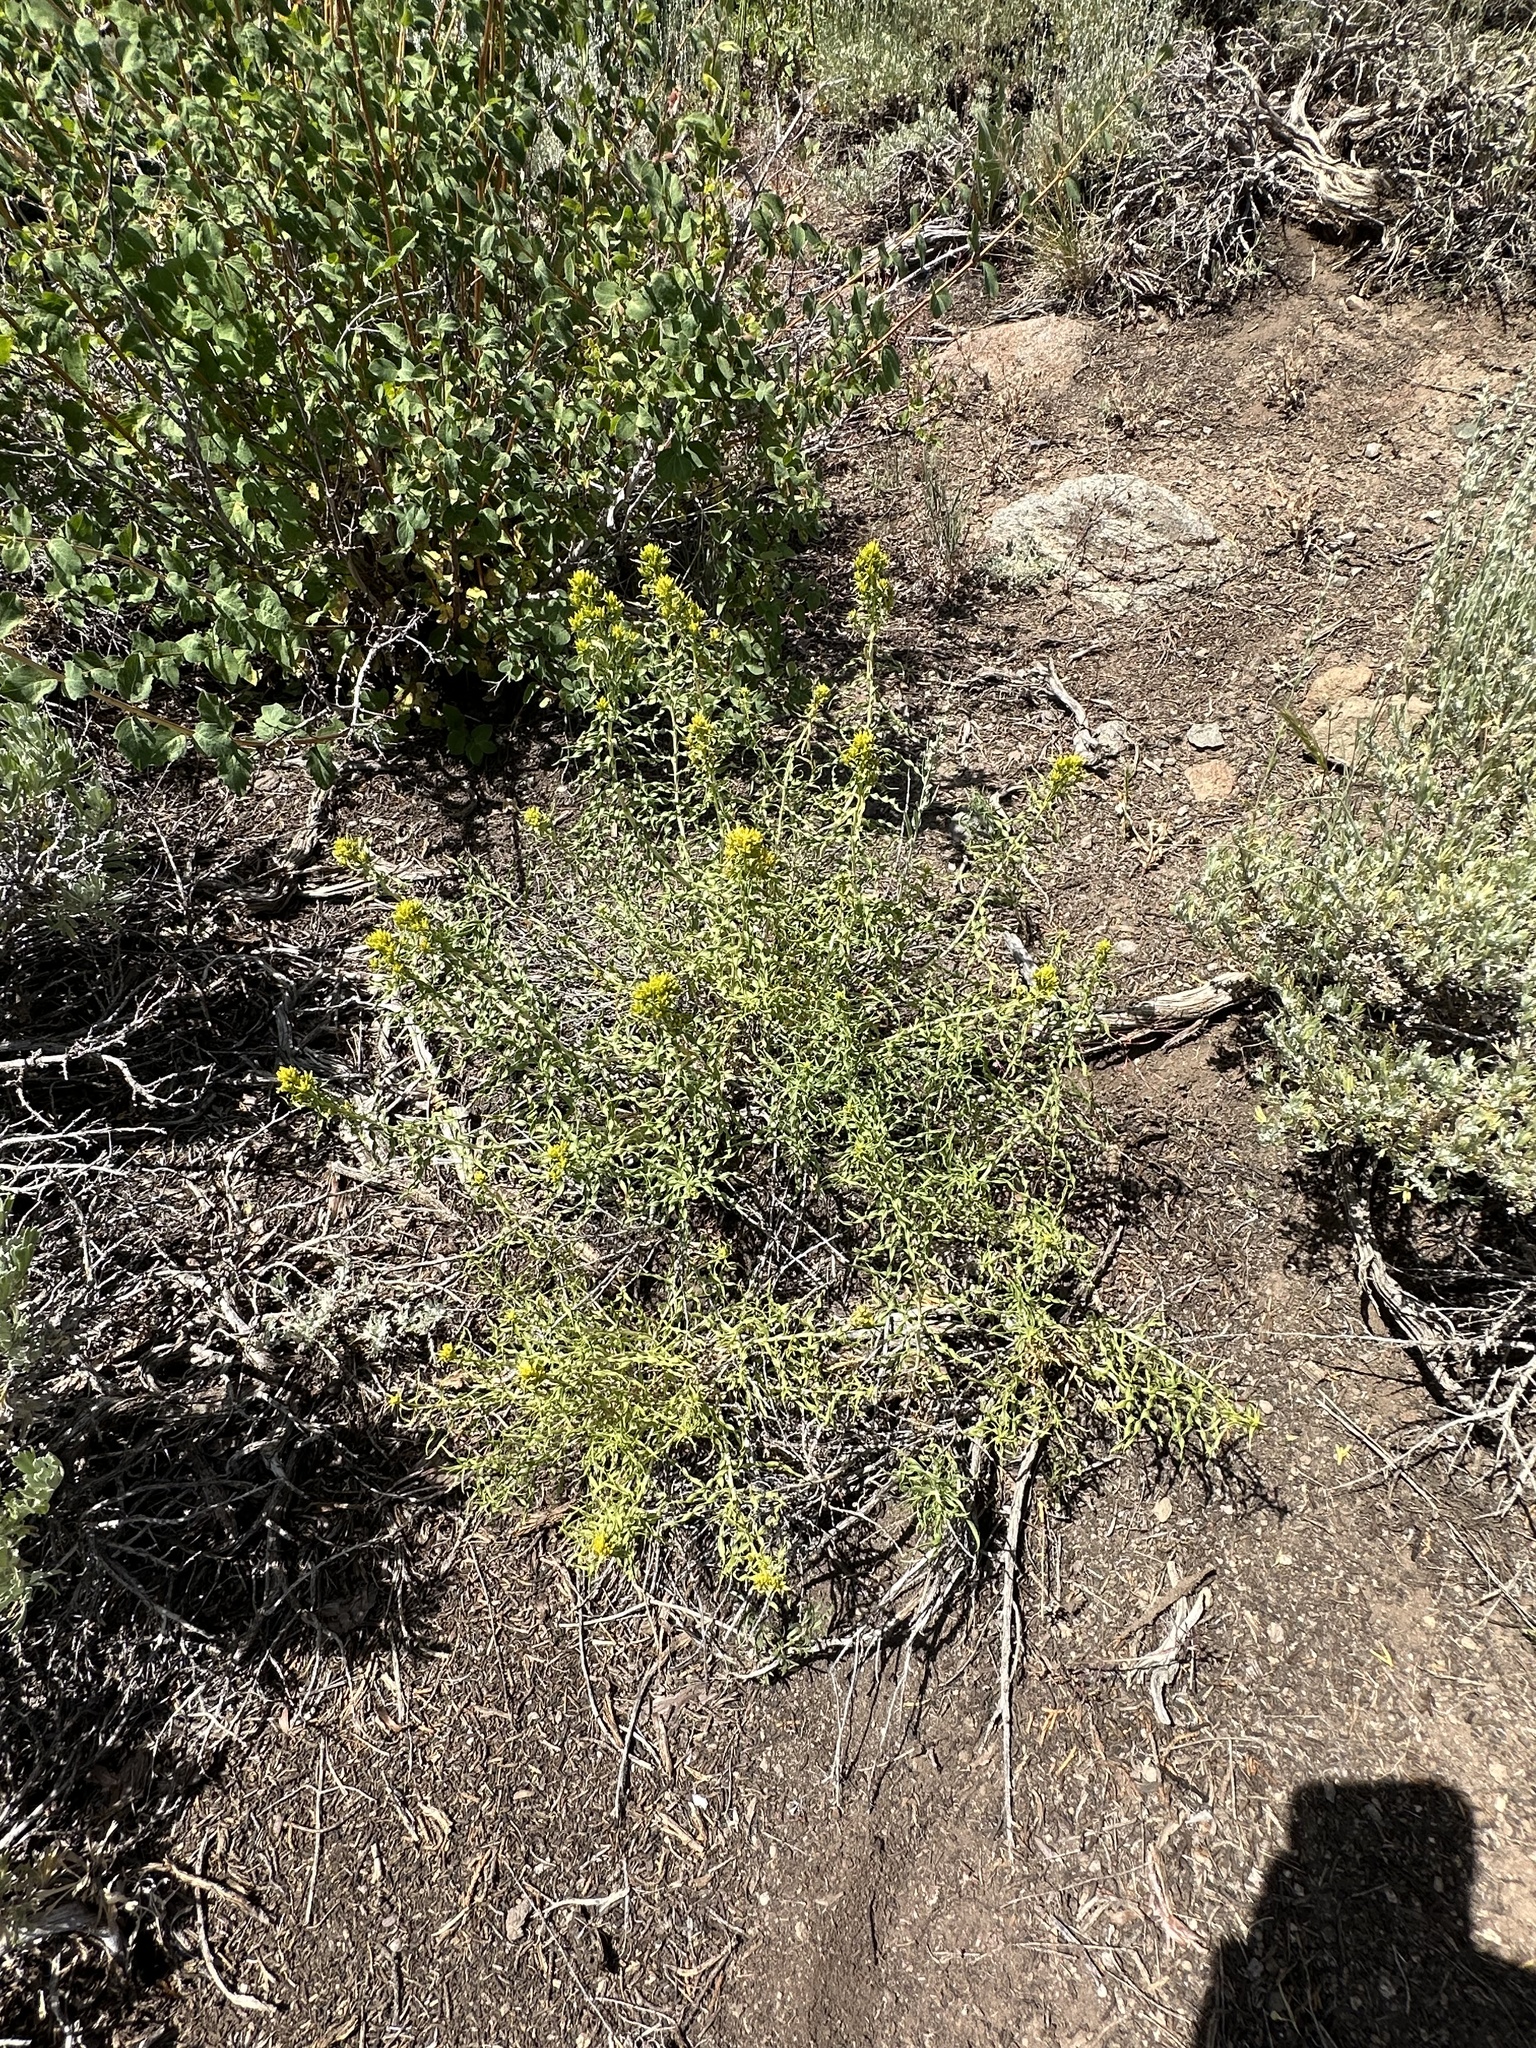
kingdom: Plantae
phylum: Tracheophyta
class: Magnoliopsida
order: Asterales
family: Asteraceae
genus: Chrysothamnus
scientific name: Chrysothamnus viscidiflorus
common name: Yellow rabbitbrush
